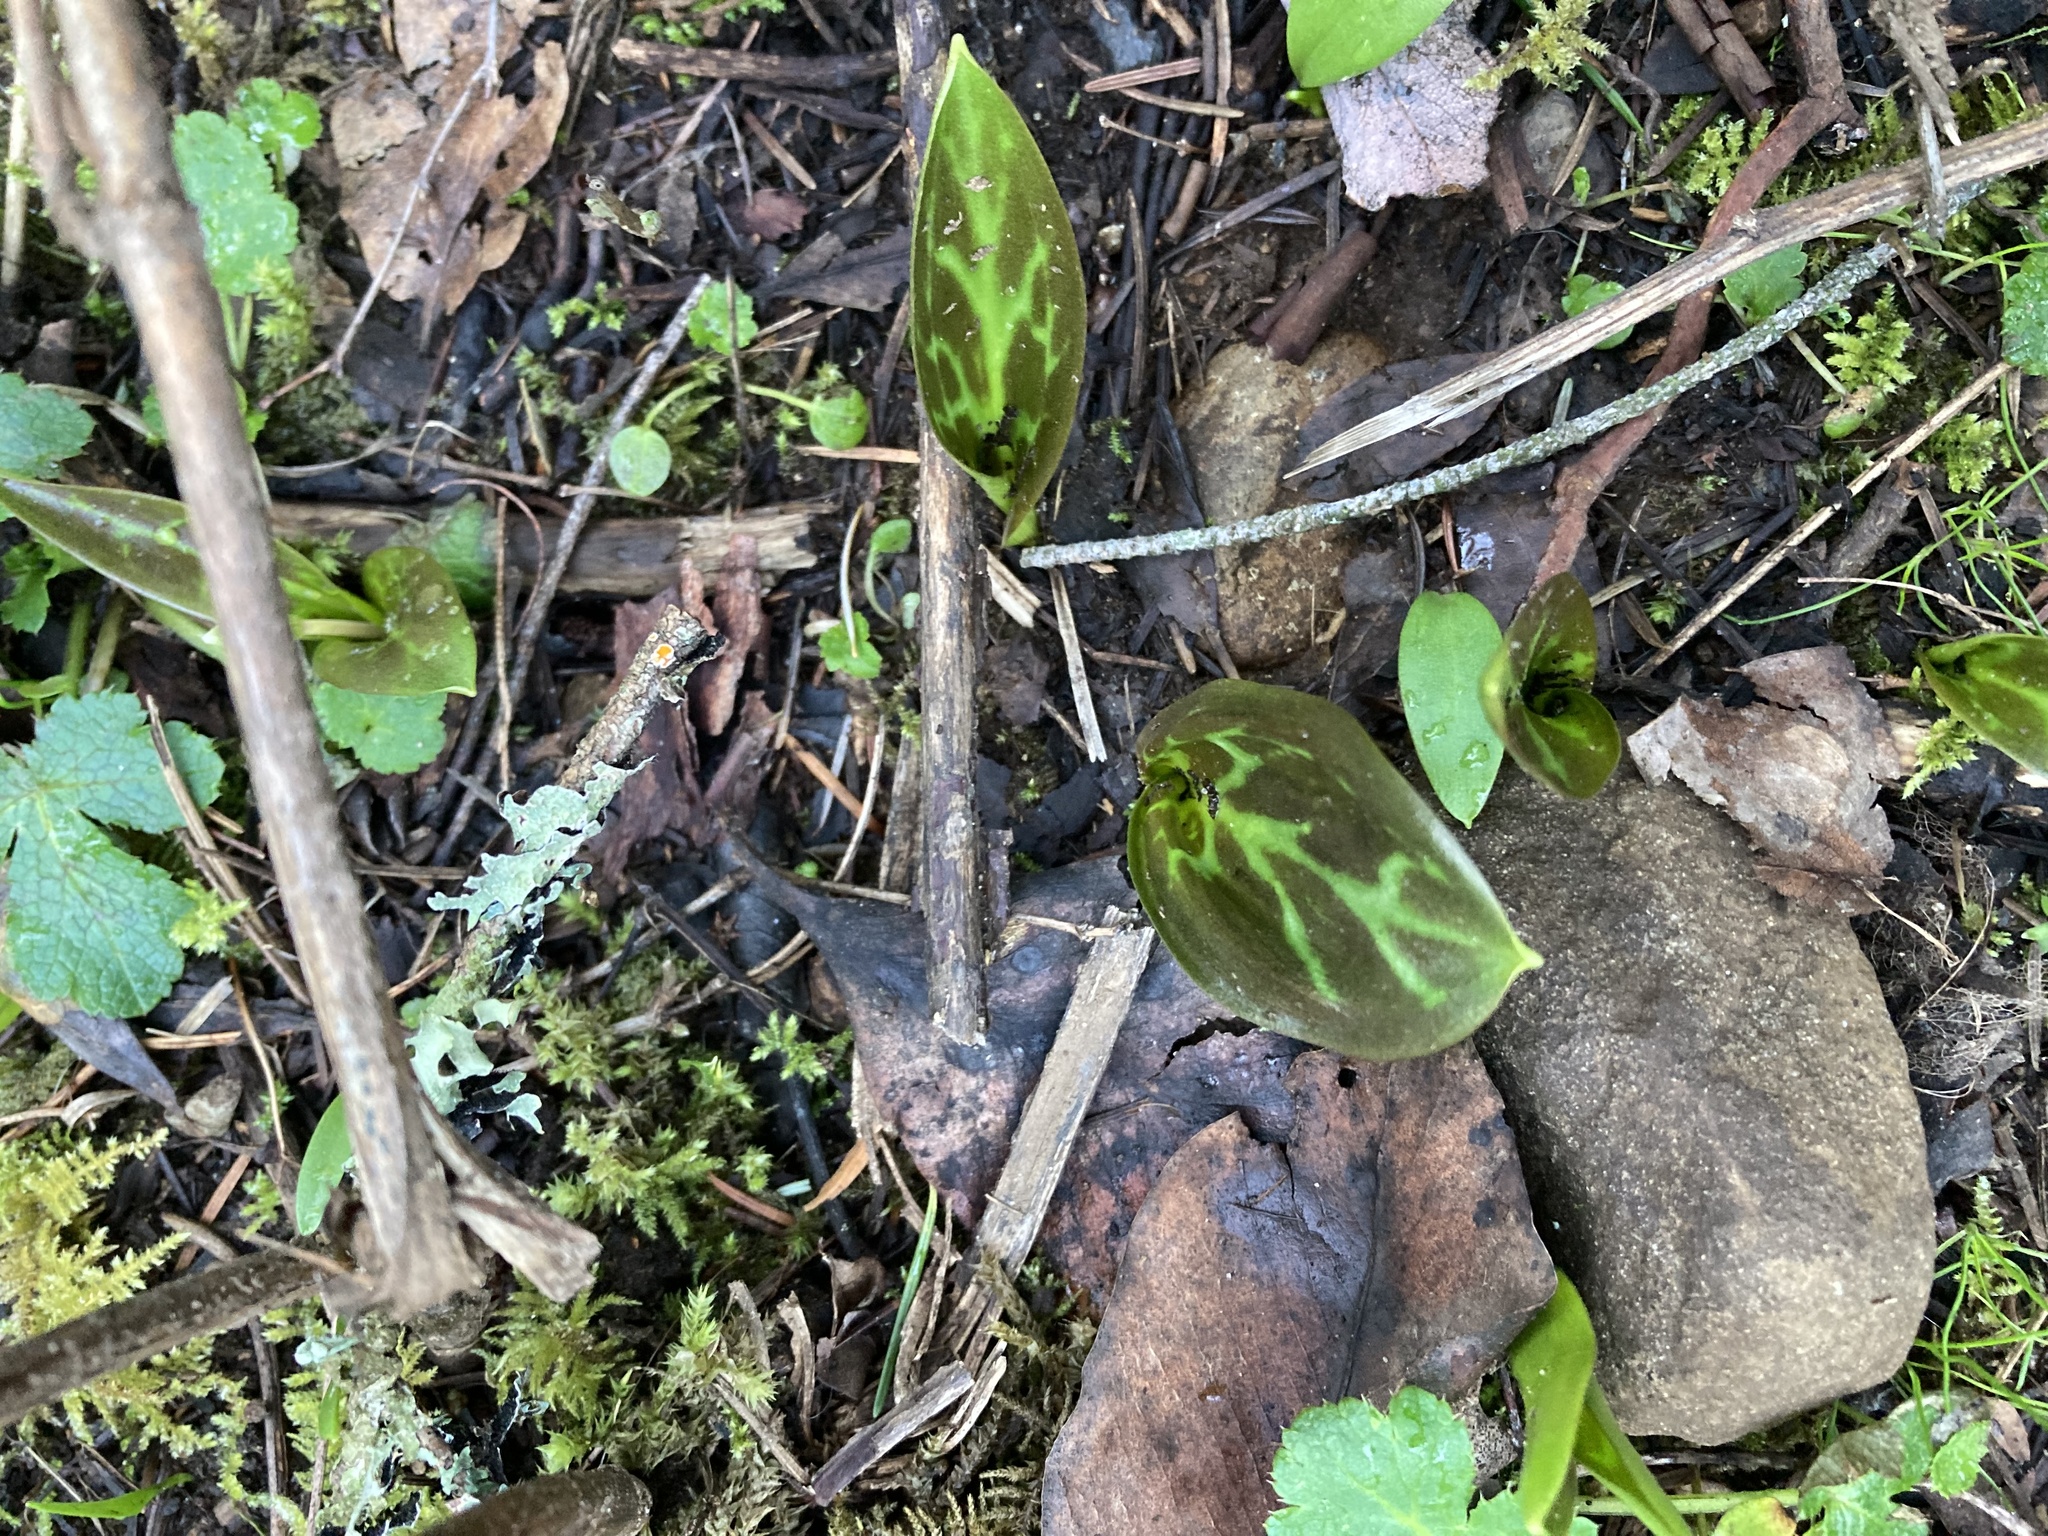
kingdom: Plantae
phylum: Tracheophyta
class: Liliopsida
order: Liliales
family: Liliaceae
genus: Erythronium
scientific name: Erythronium oregonum
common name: Giant adder's-tongue
